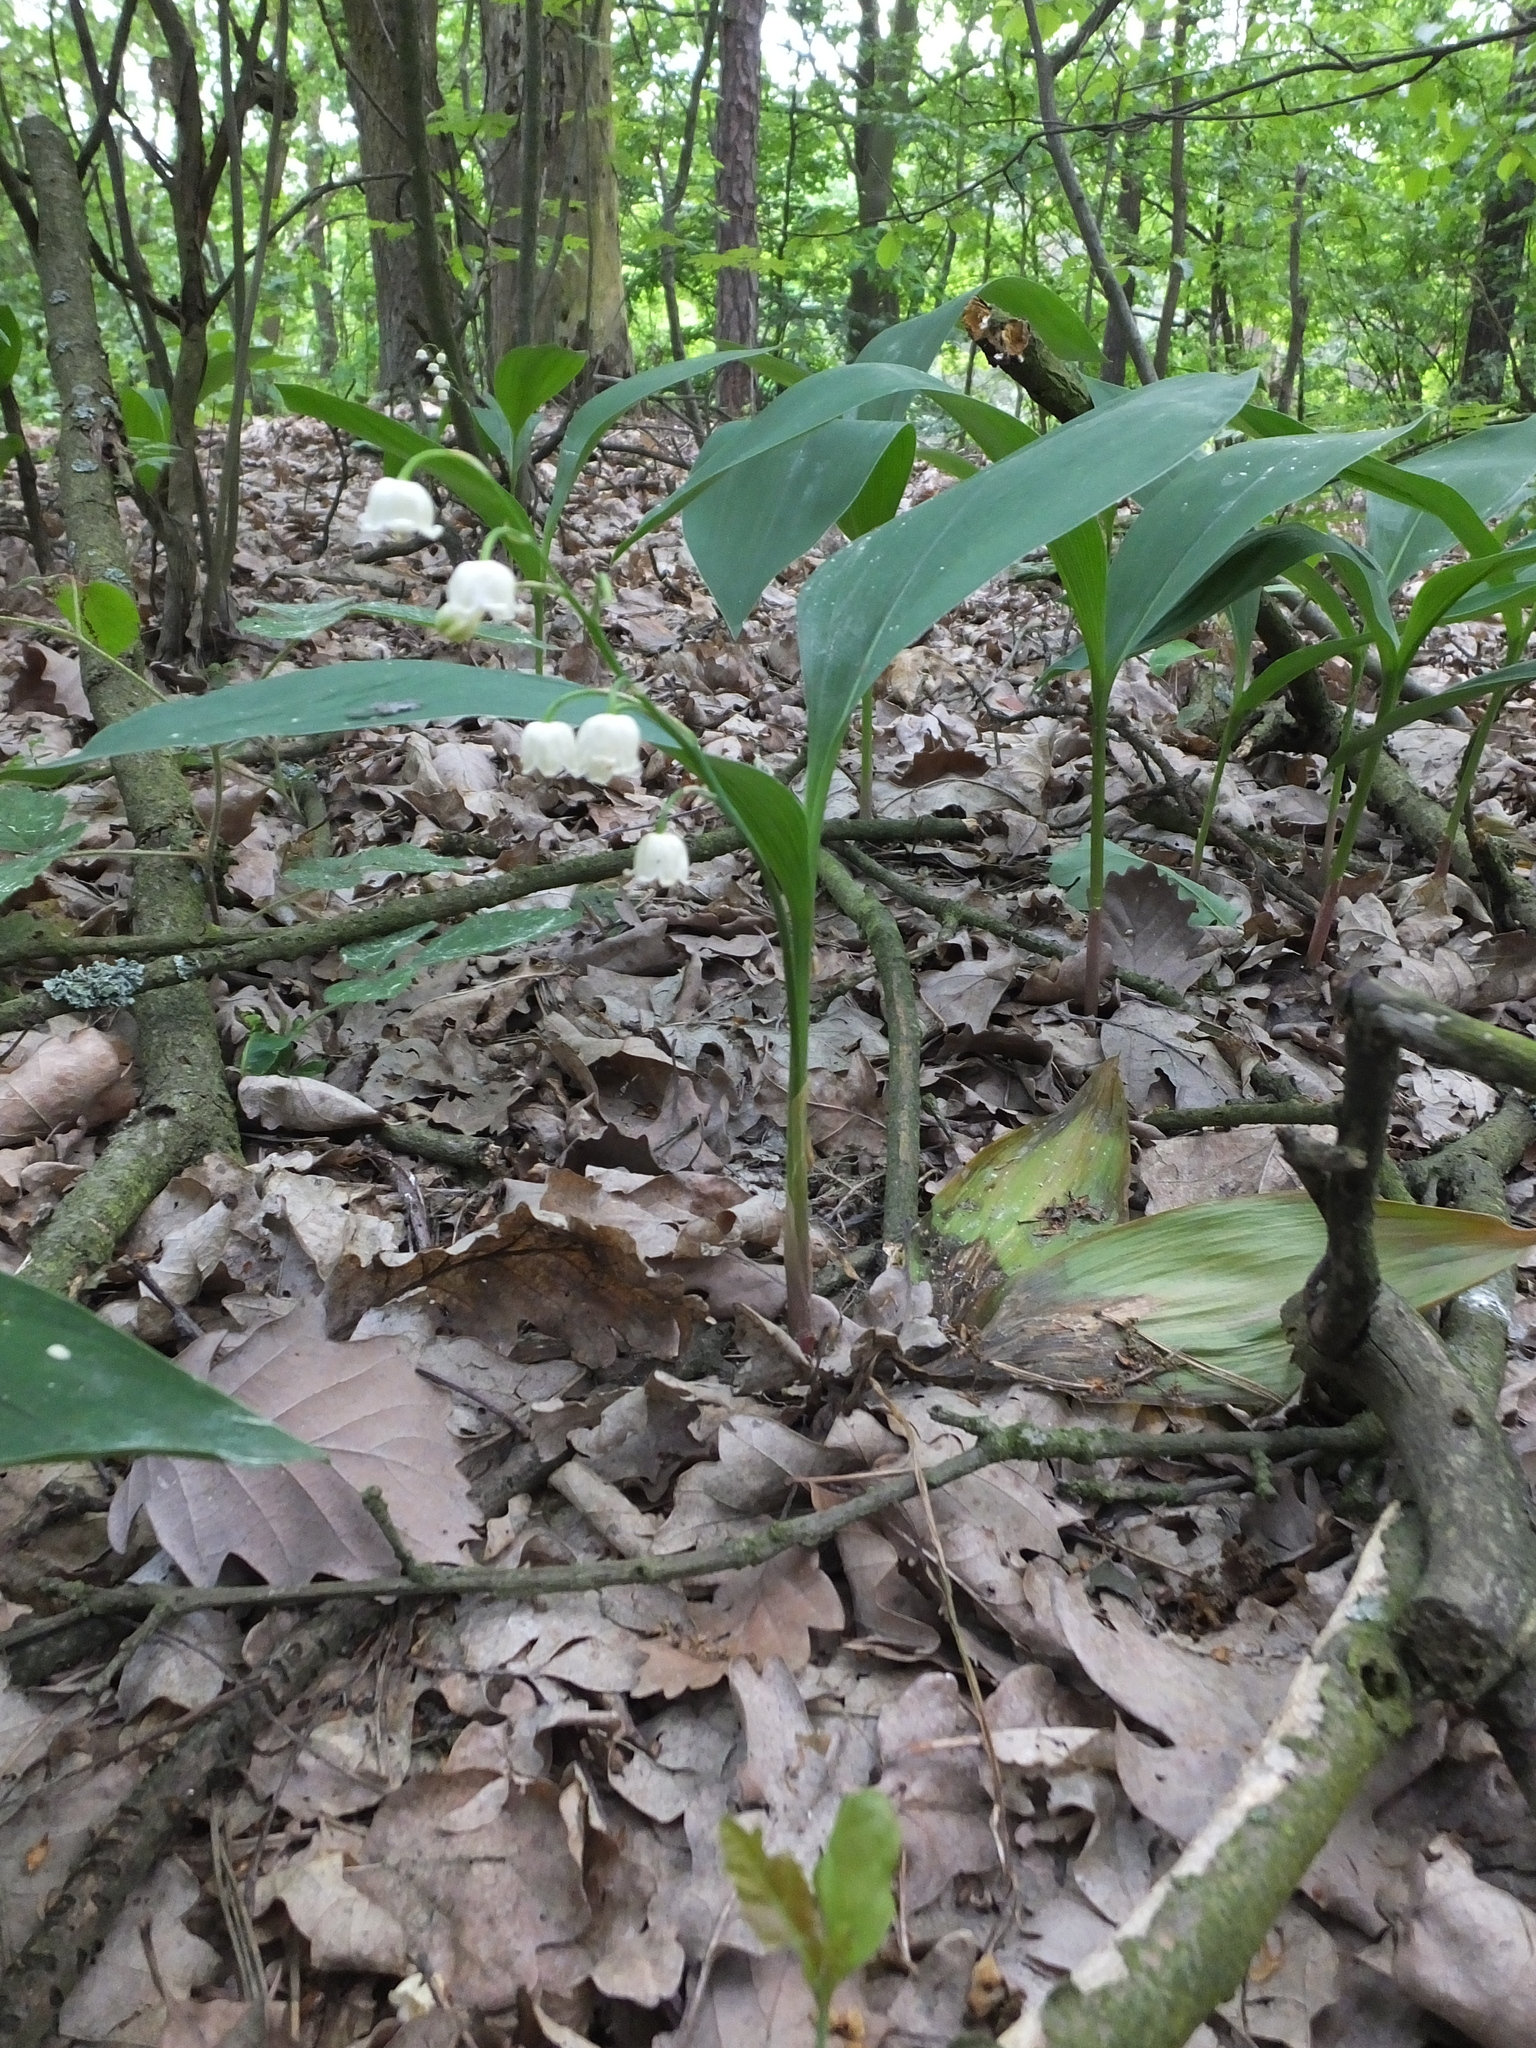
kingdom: Plantae
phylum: Tracheophyta
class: Liliopsida
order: Asparagales
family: Asparagaceae
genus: Convallaria
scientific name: Convallaria majalis
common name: Lily-of-the-valley
